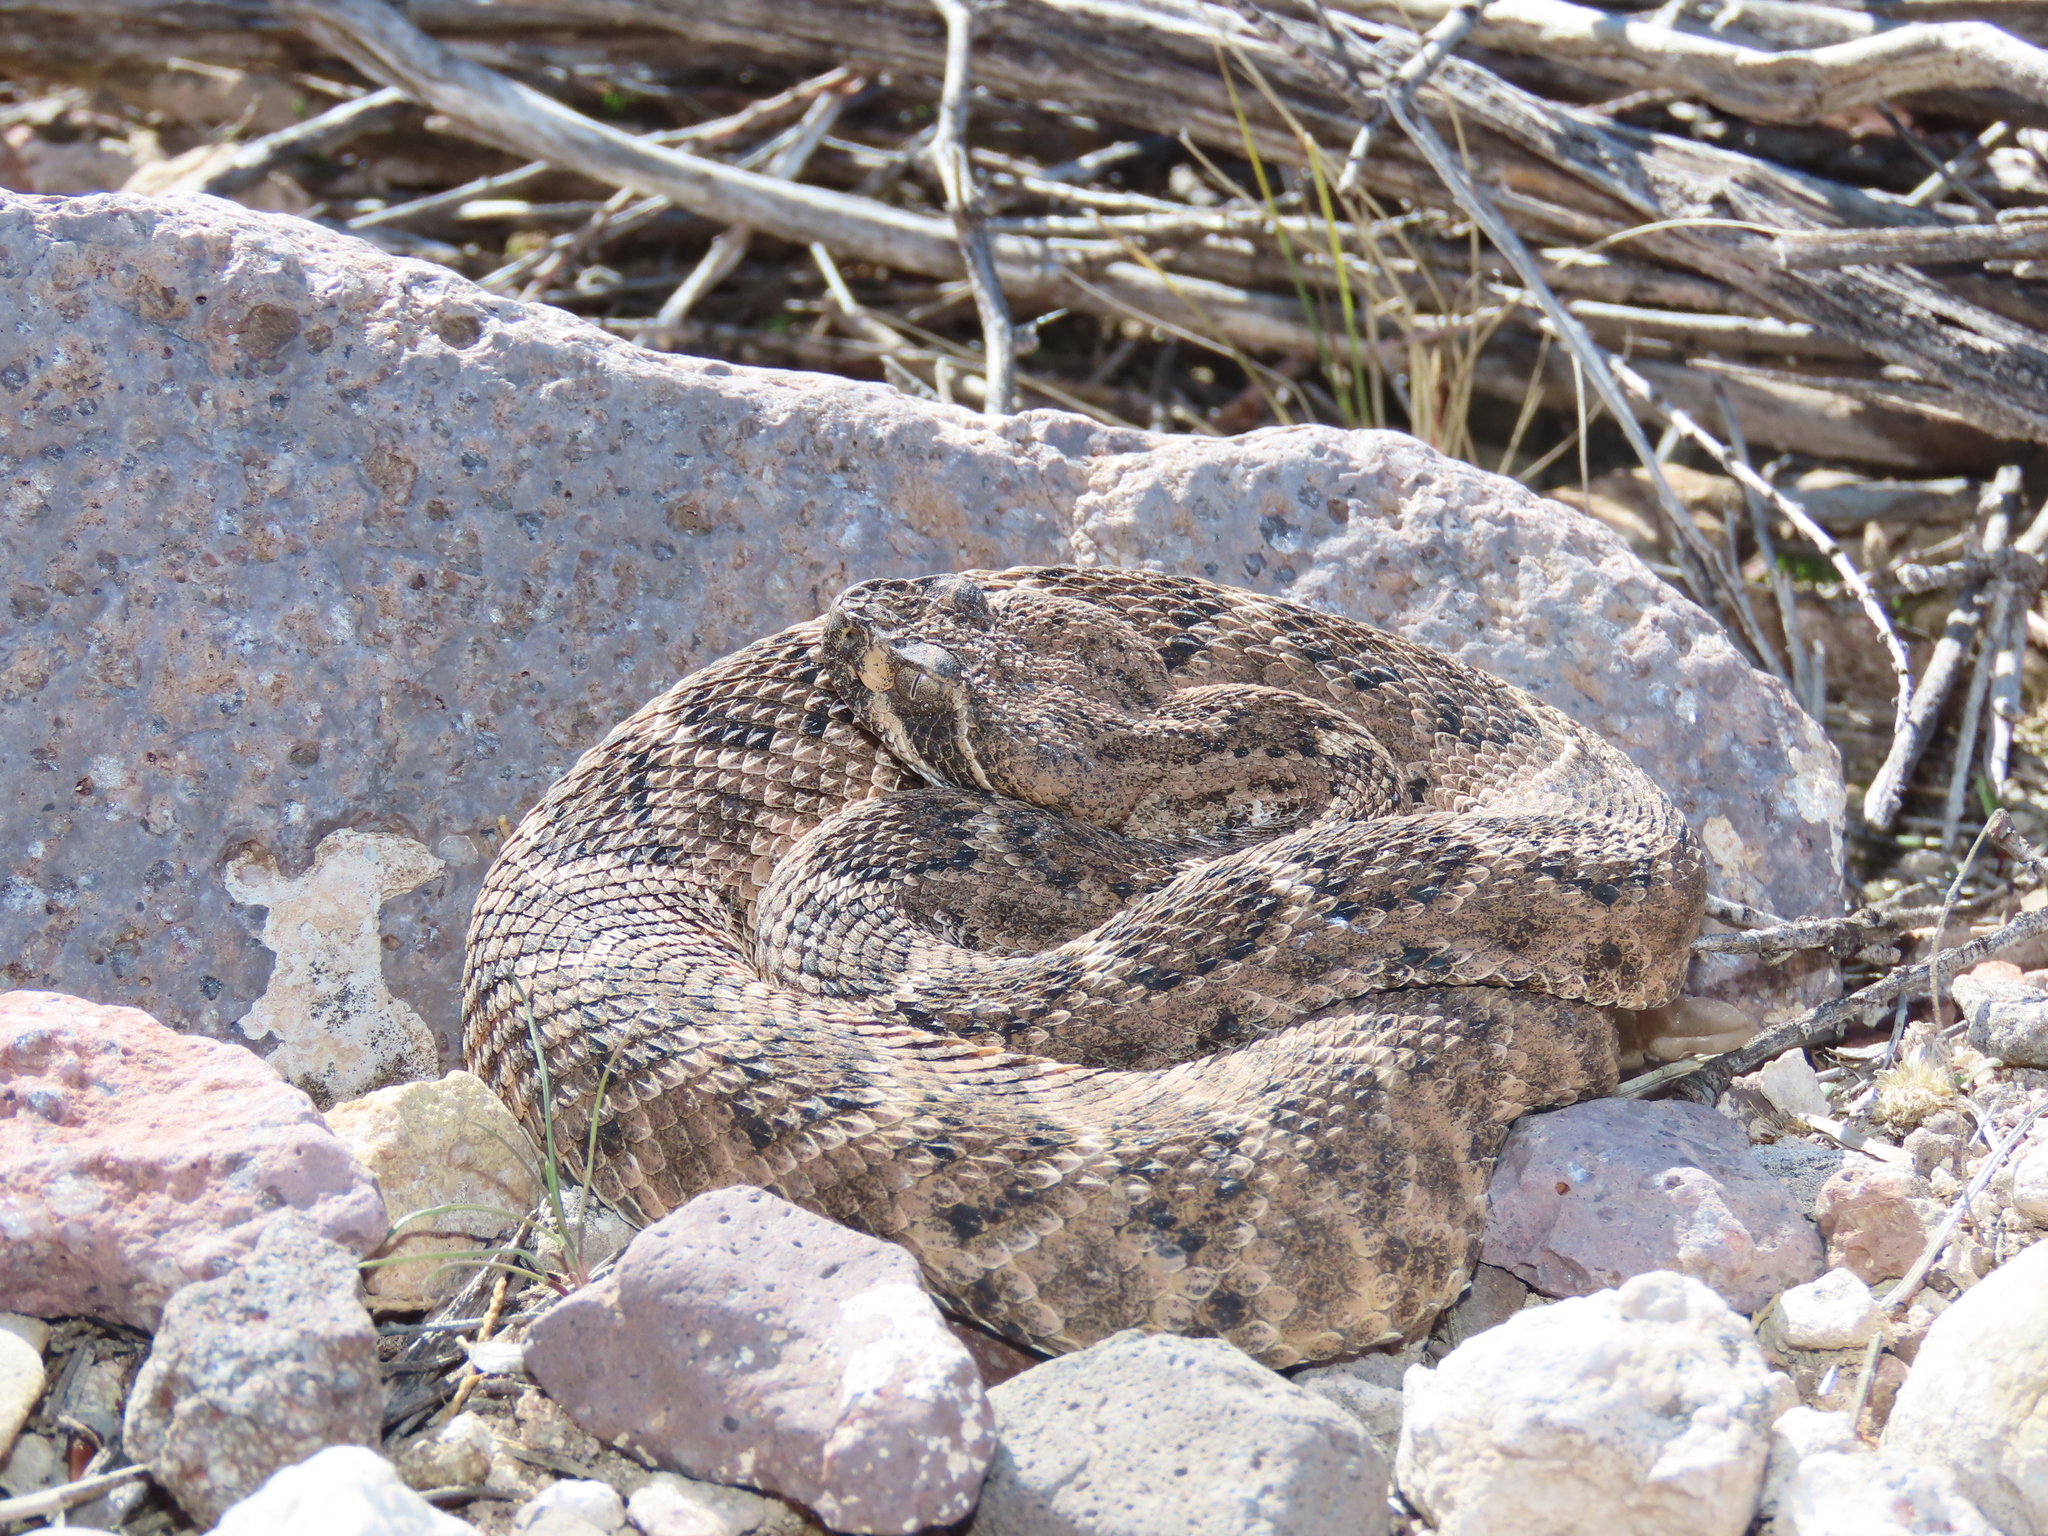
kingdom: Animalia
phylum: Chordata
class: Squamata
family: Viperidae
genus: Crotalus
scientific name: Crotalus atrox
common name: Western diamond-backed rattlesnake
